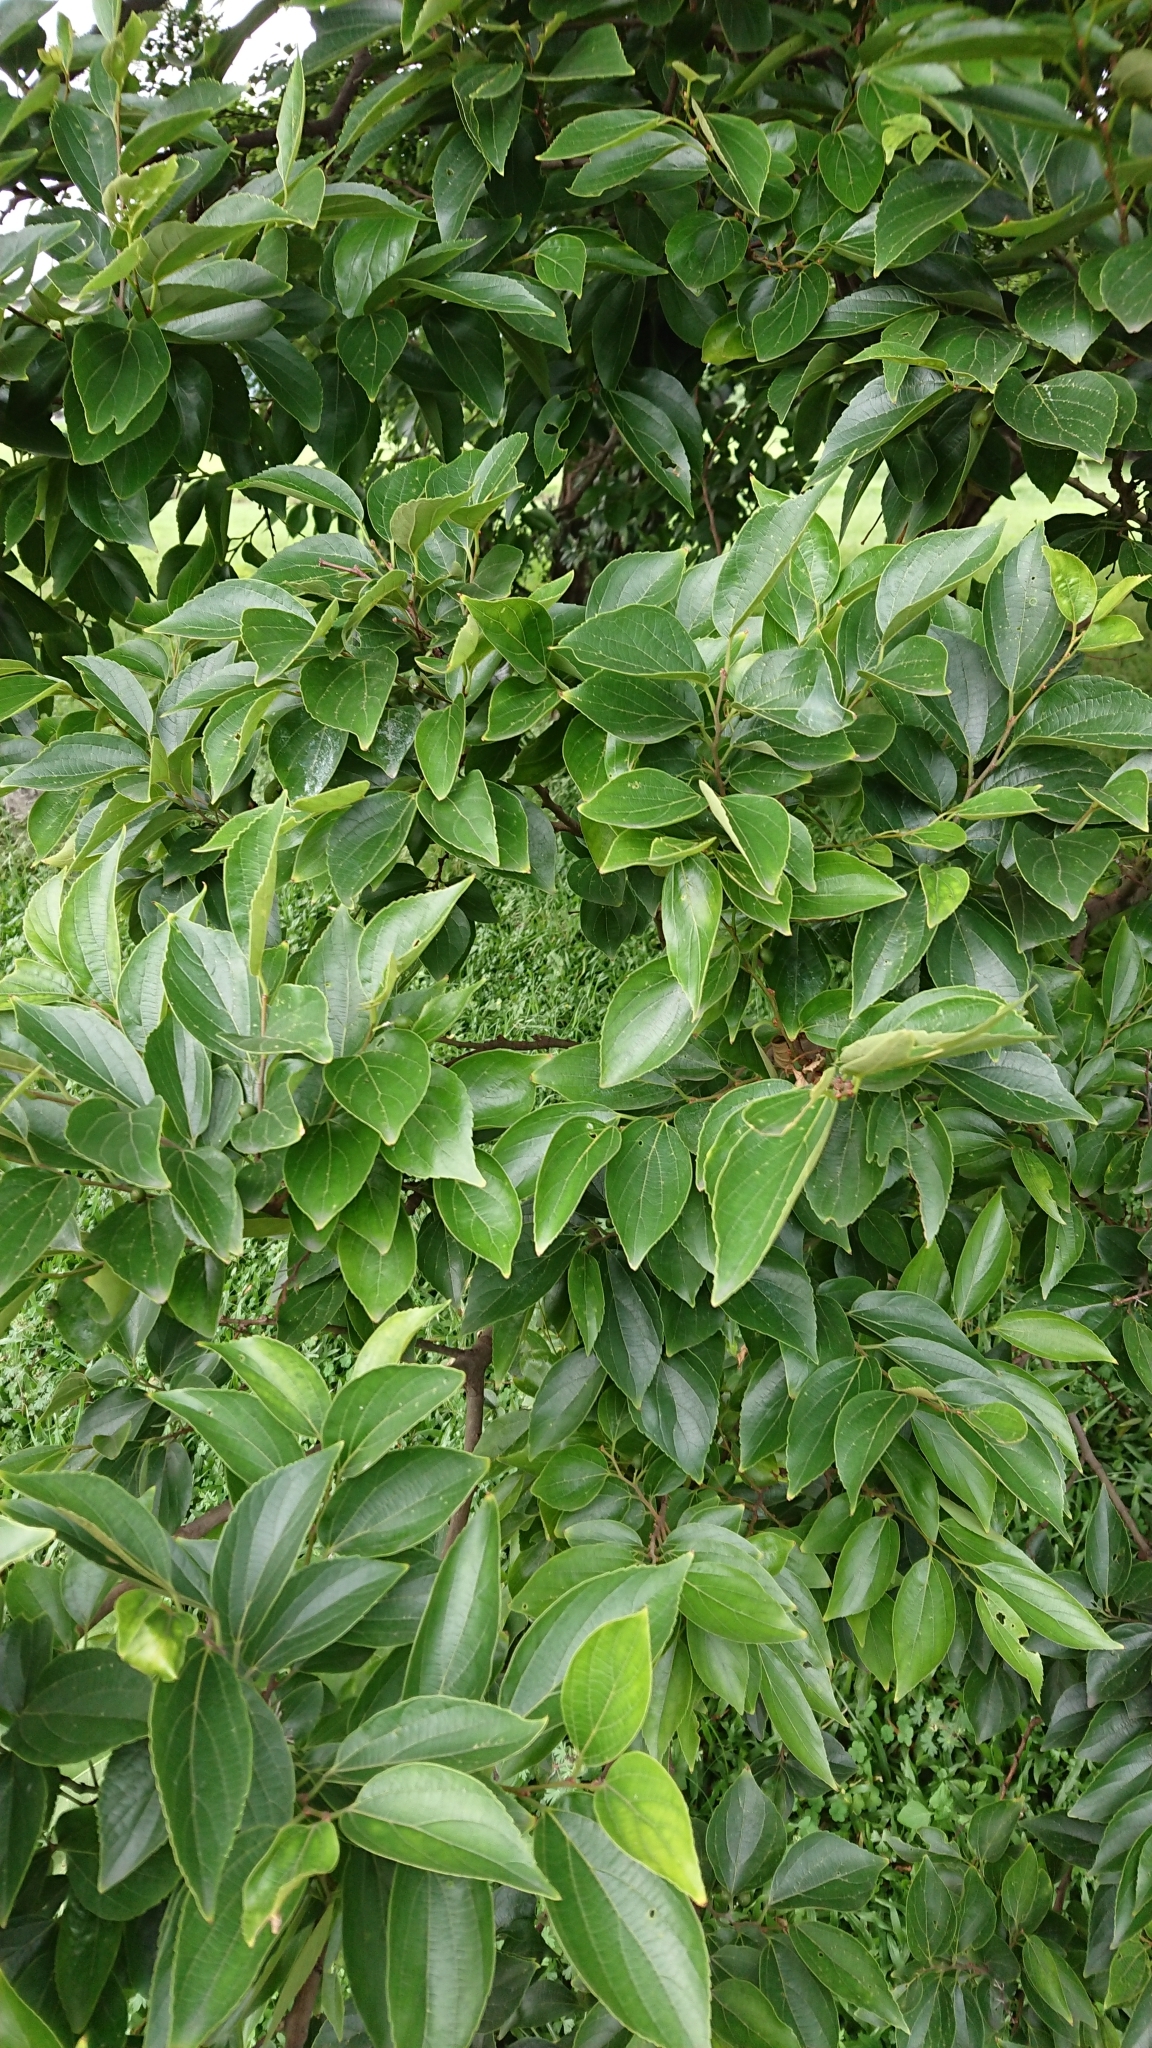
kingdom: Plantae
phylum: Tracheophyta
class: Magnoliopsida
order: Rosales
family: Cannabaceae
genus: Celtis
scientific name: Celtis sinensis
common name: Chinese hackberry
